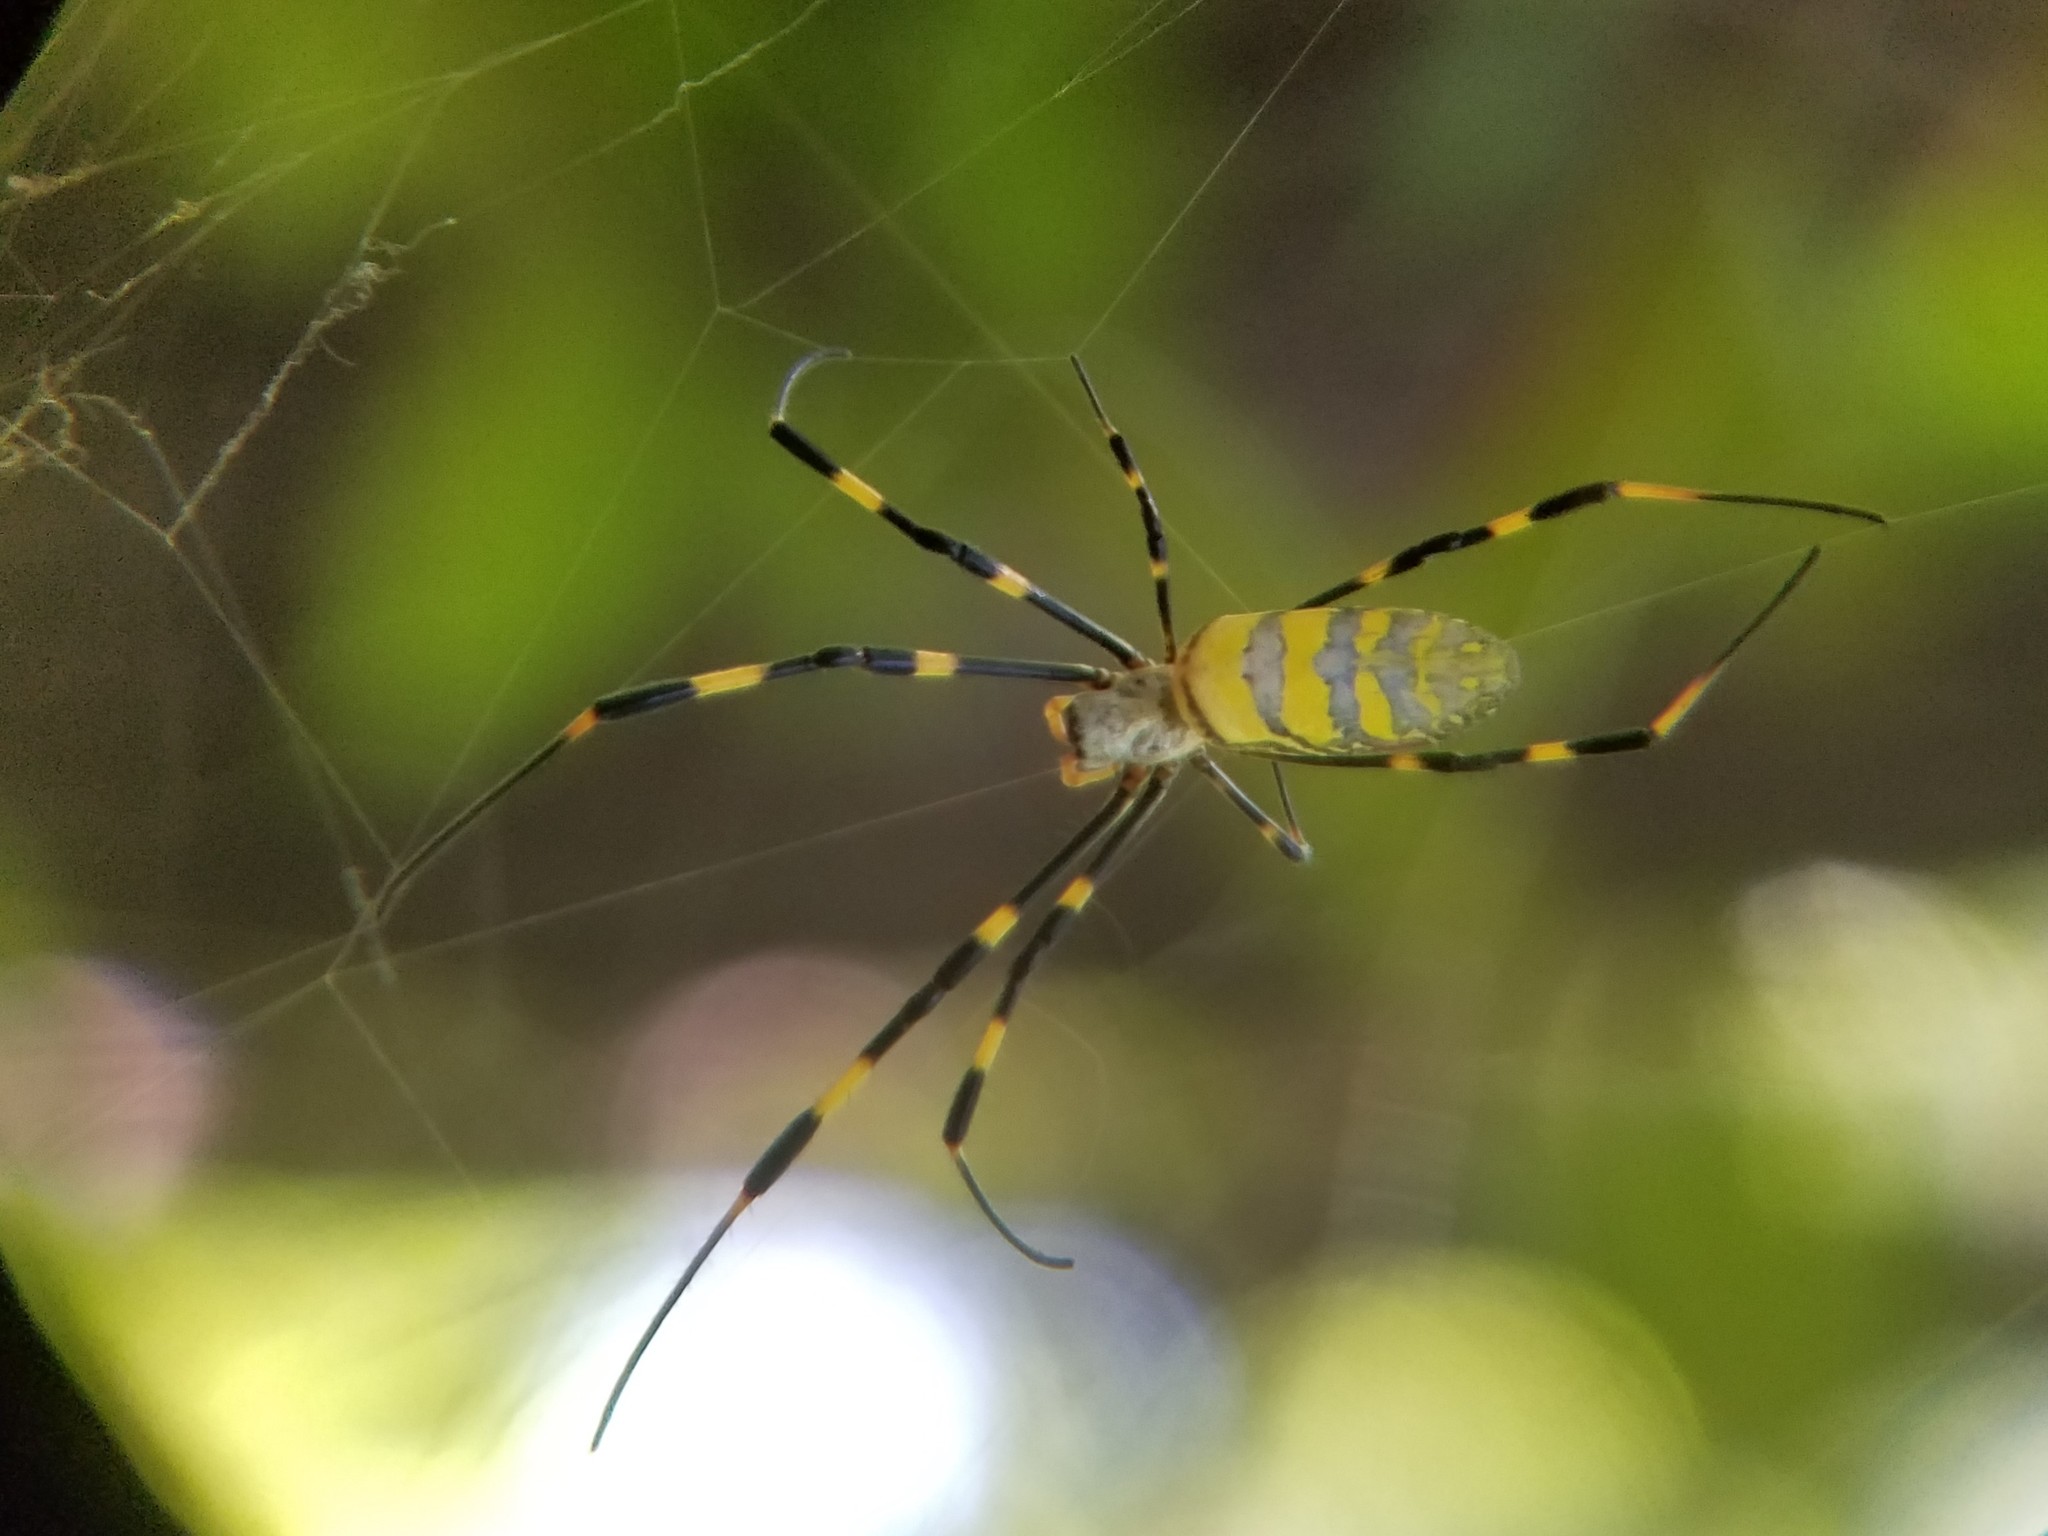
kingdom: Animalia
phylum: Arthropoda
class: Arachnida
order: Araneae
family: Araneidae
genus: Trichonephila
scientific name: Trichonephila clavata
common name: Jorō spider
